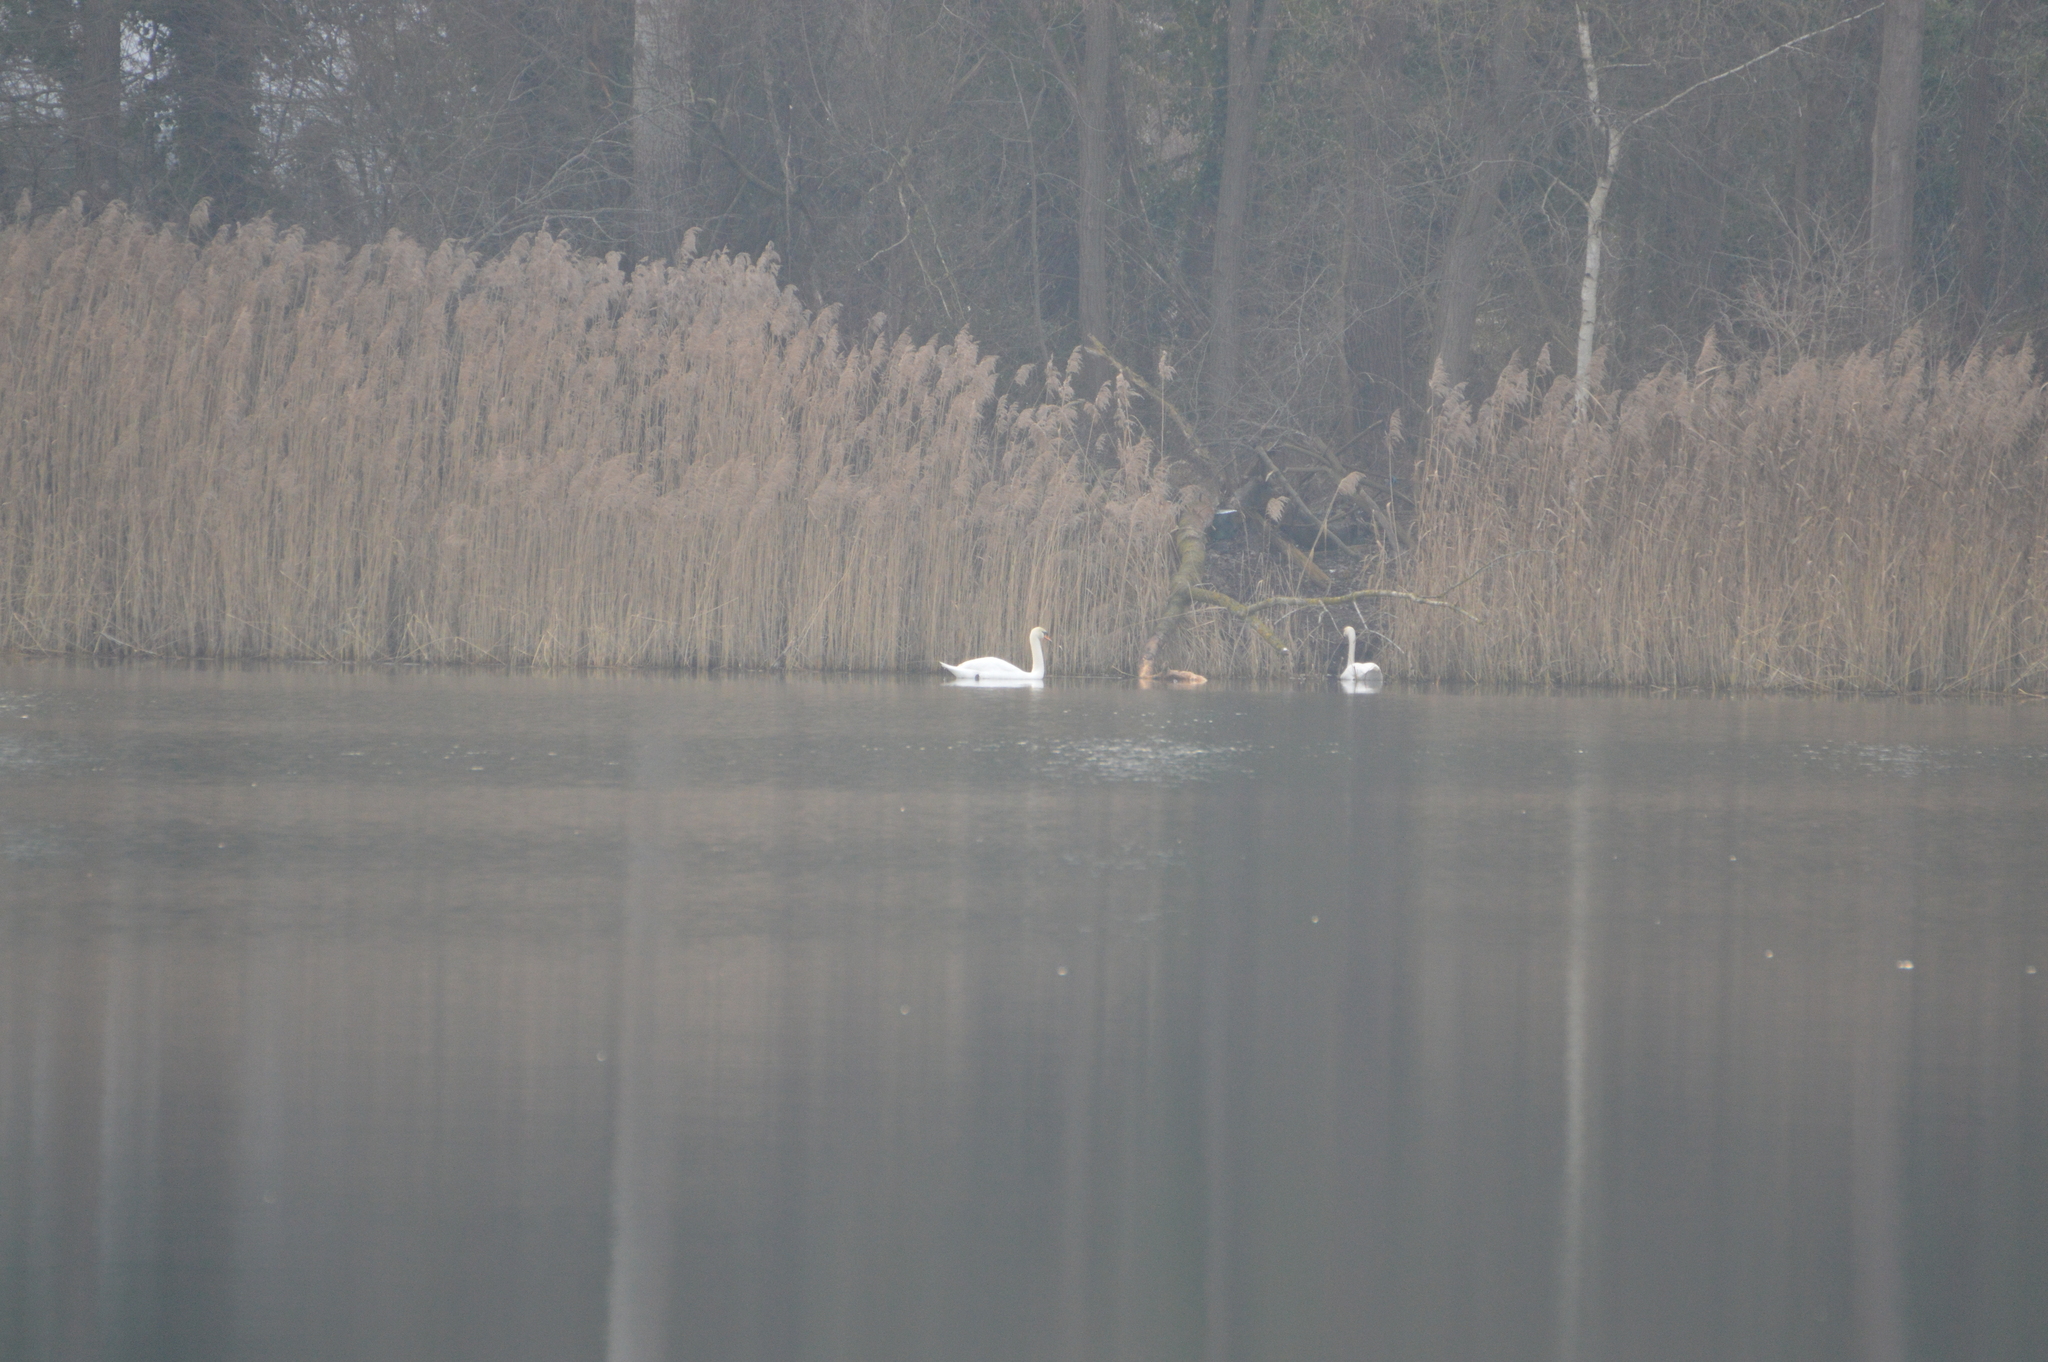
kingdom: Animalia
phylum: Chordata
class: Aves
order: Anseriformes
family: Anatidae
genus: Cygnus
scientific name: Cygnus olor
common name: Mute swan
